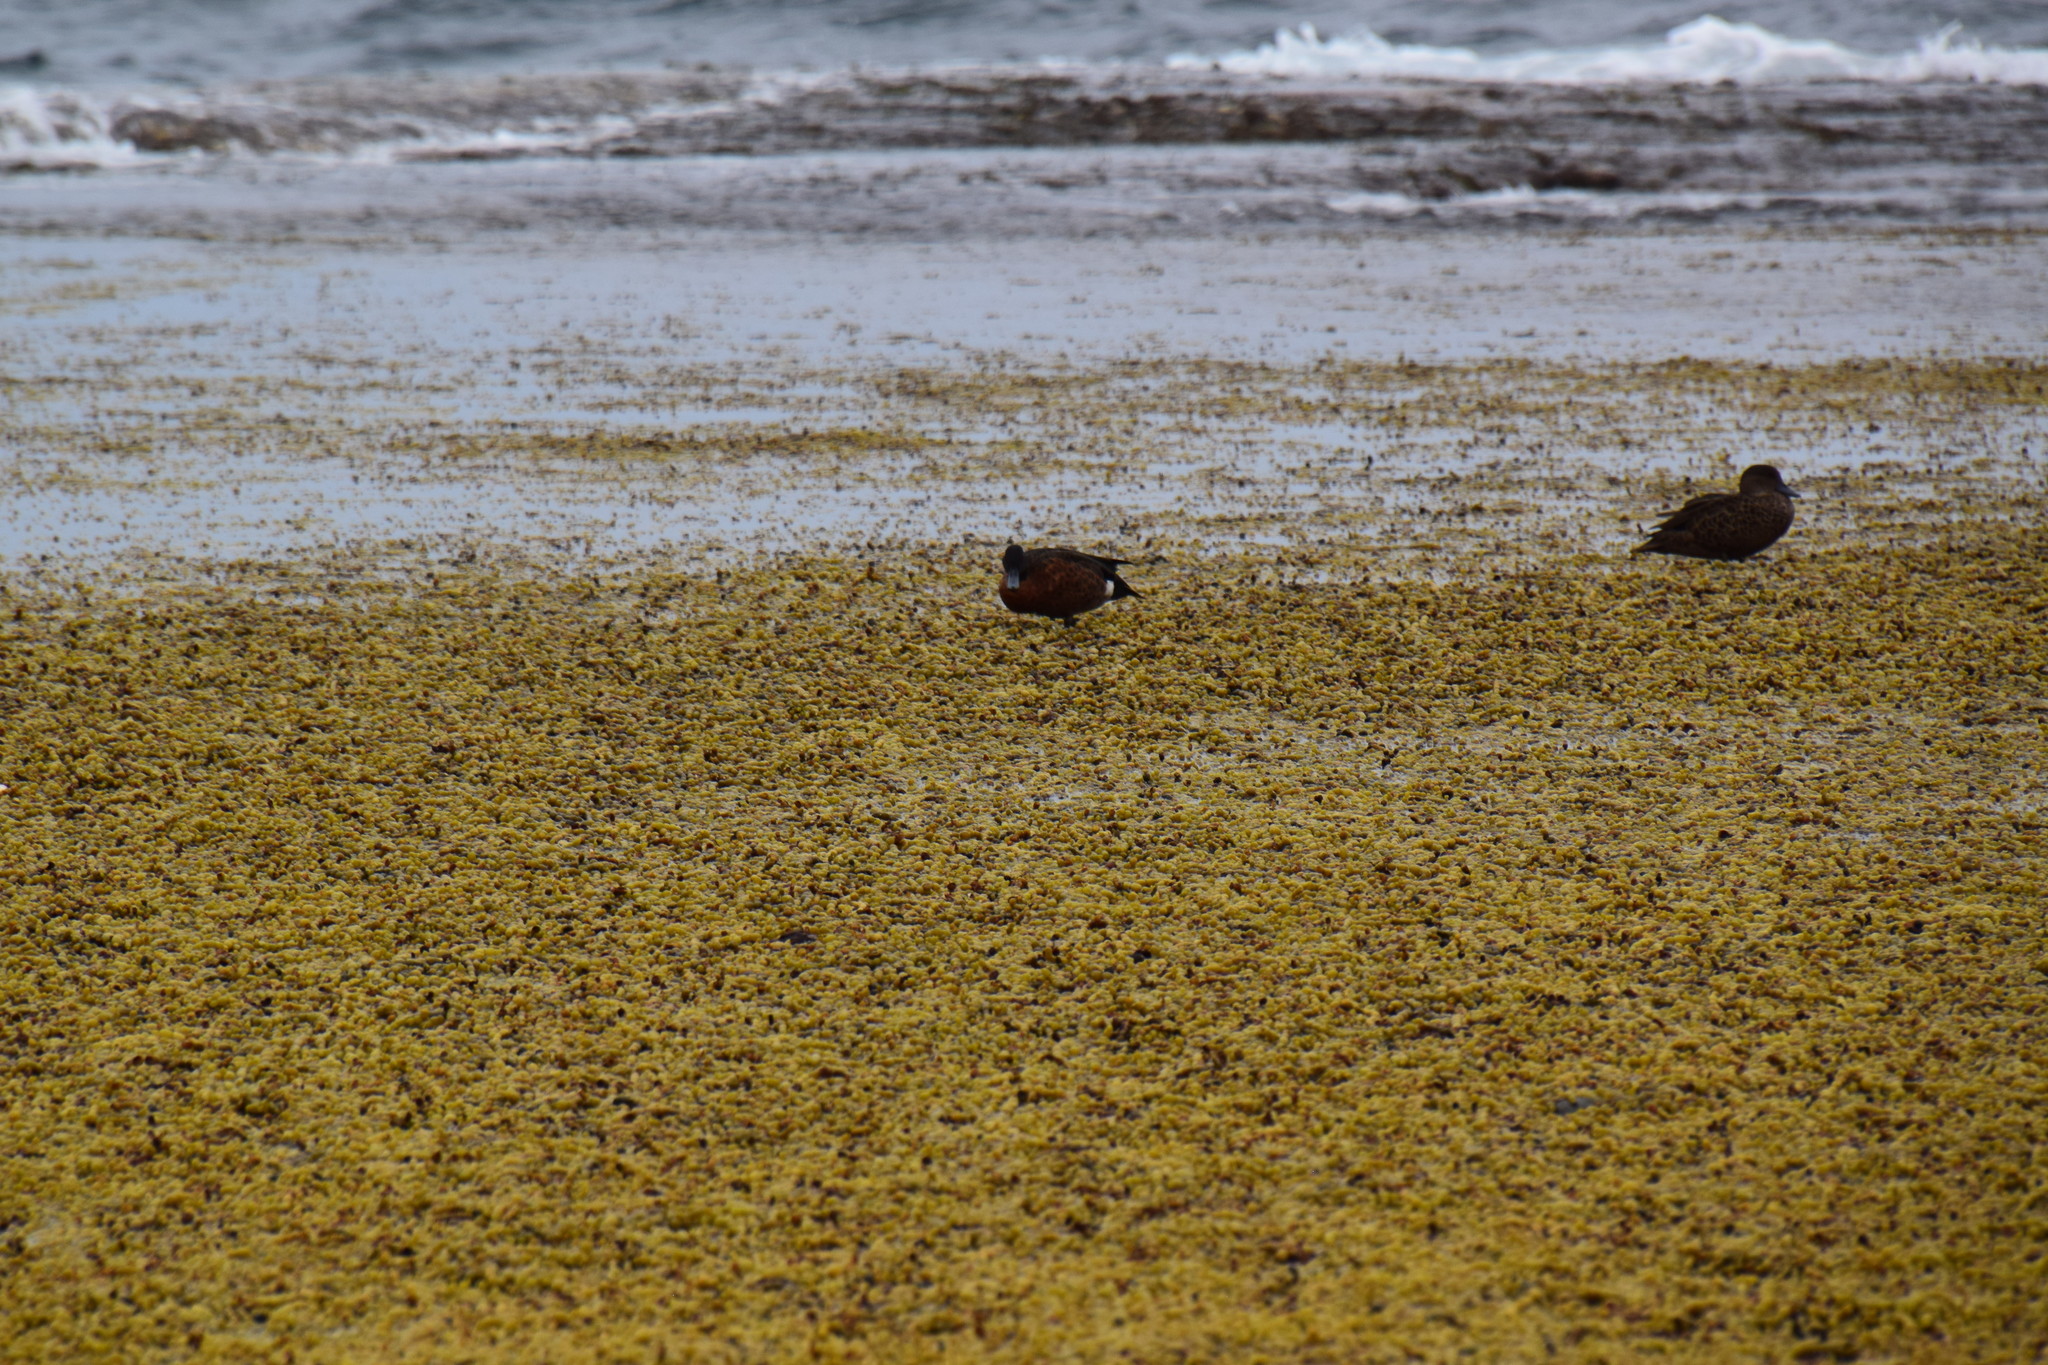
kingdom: Chromista
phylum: Ochrophyta
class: Phaeophyceae
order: Fucales
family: Hormosiraceae
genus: Hormosira
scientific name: Hormosira banksii
